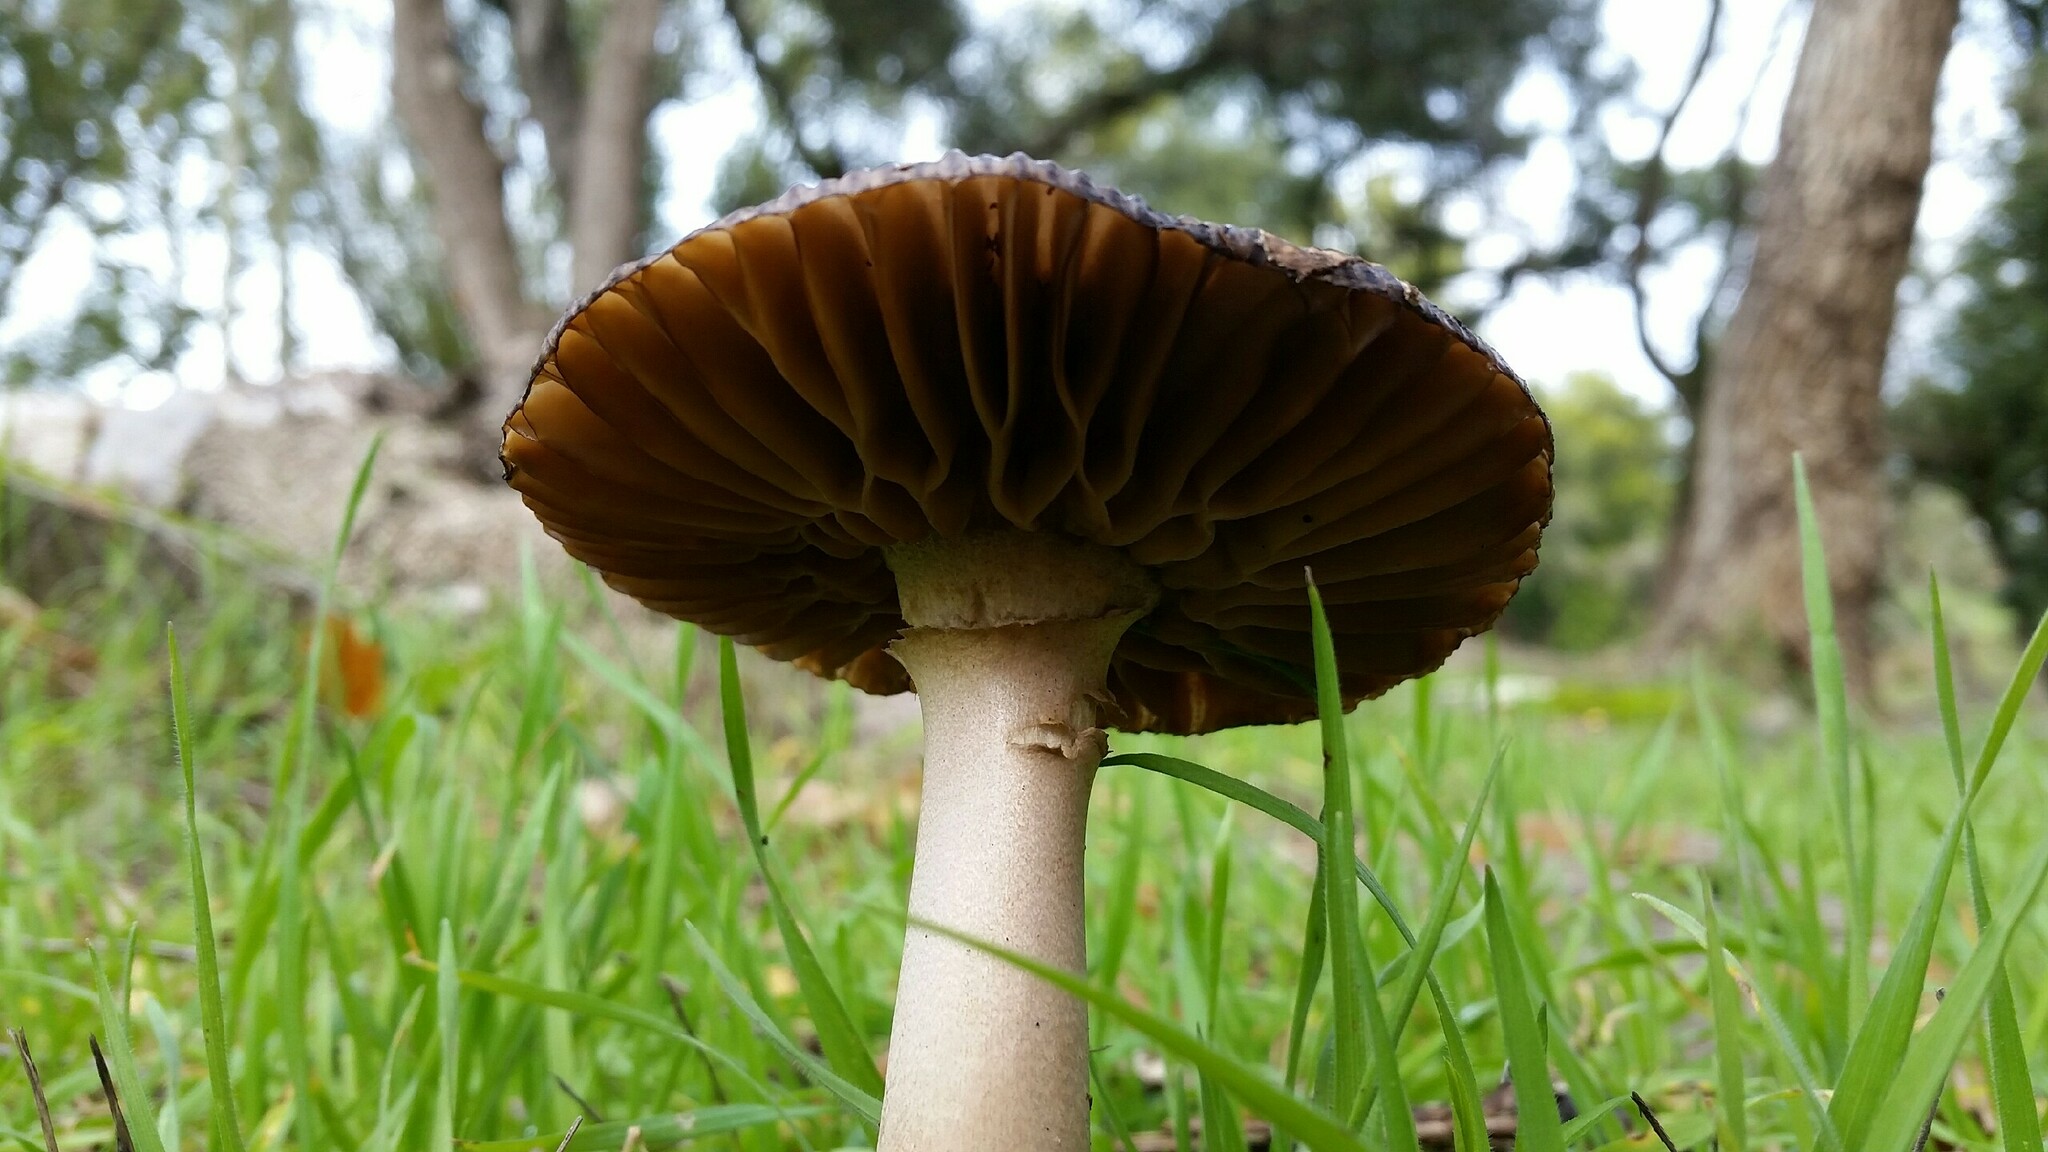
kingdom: Fungi
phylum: Basidiomycota
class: Agaricomycetes
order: Agaricales
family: Amanitaceae
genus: Amanita
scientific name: Amanita constricta
